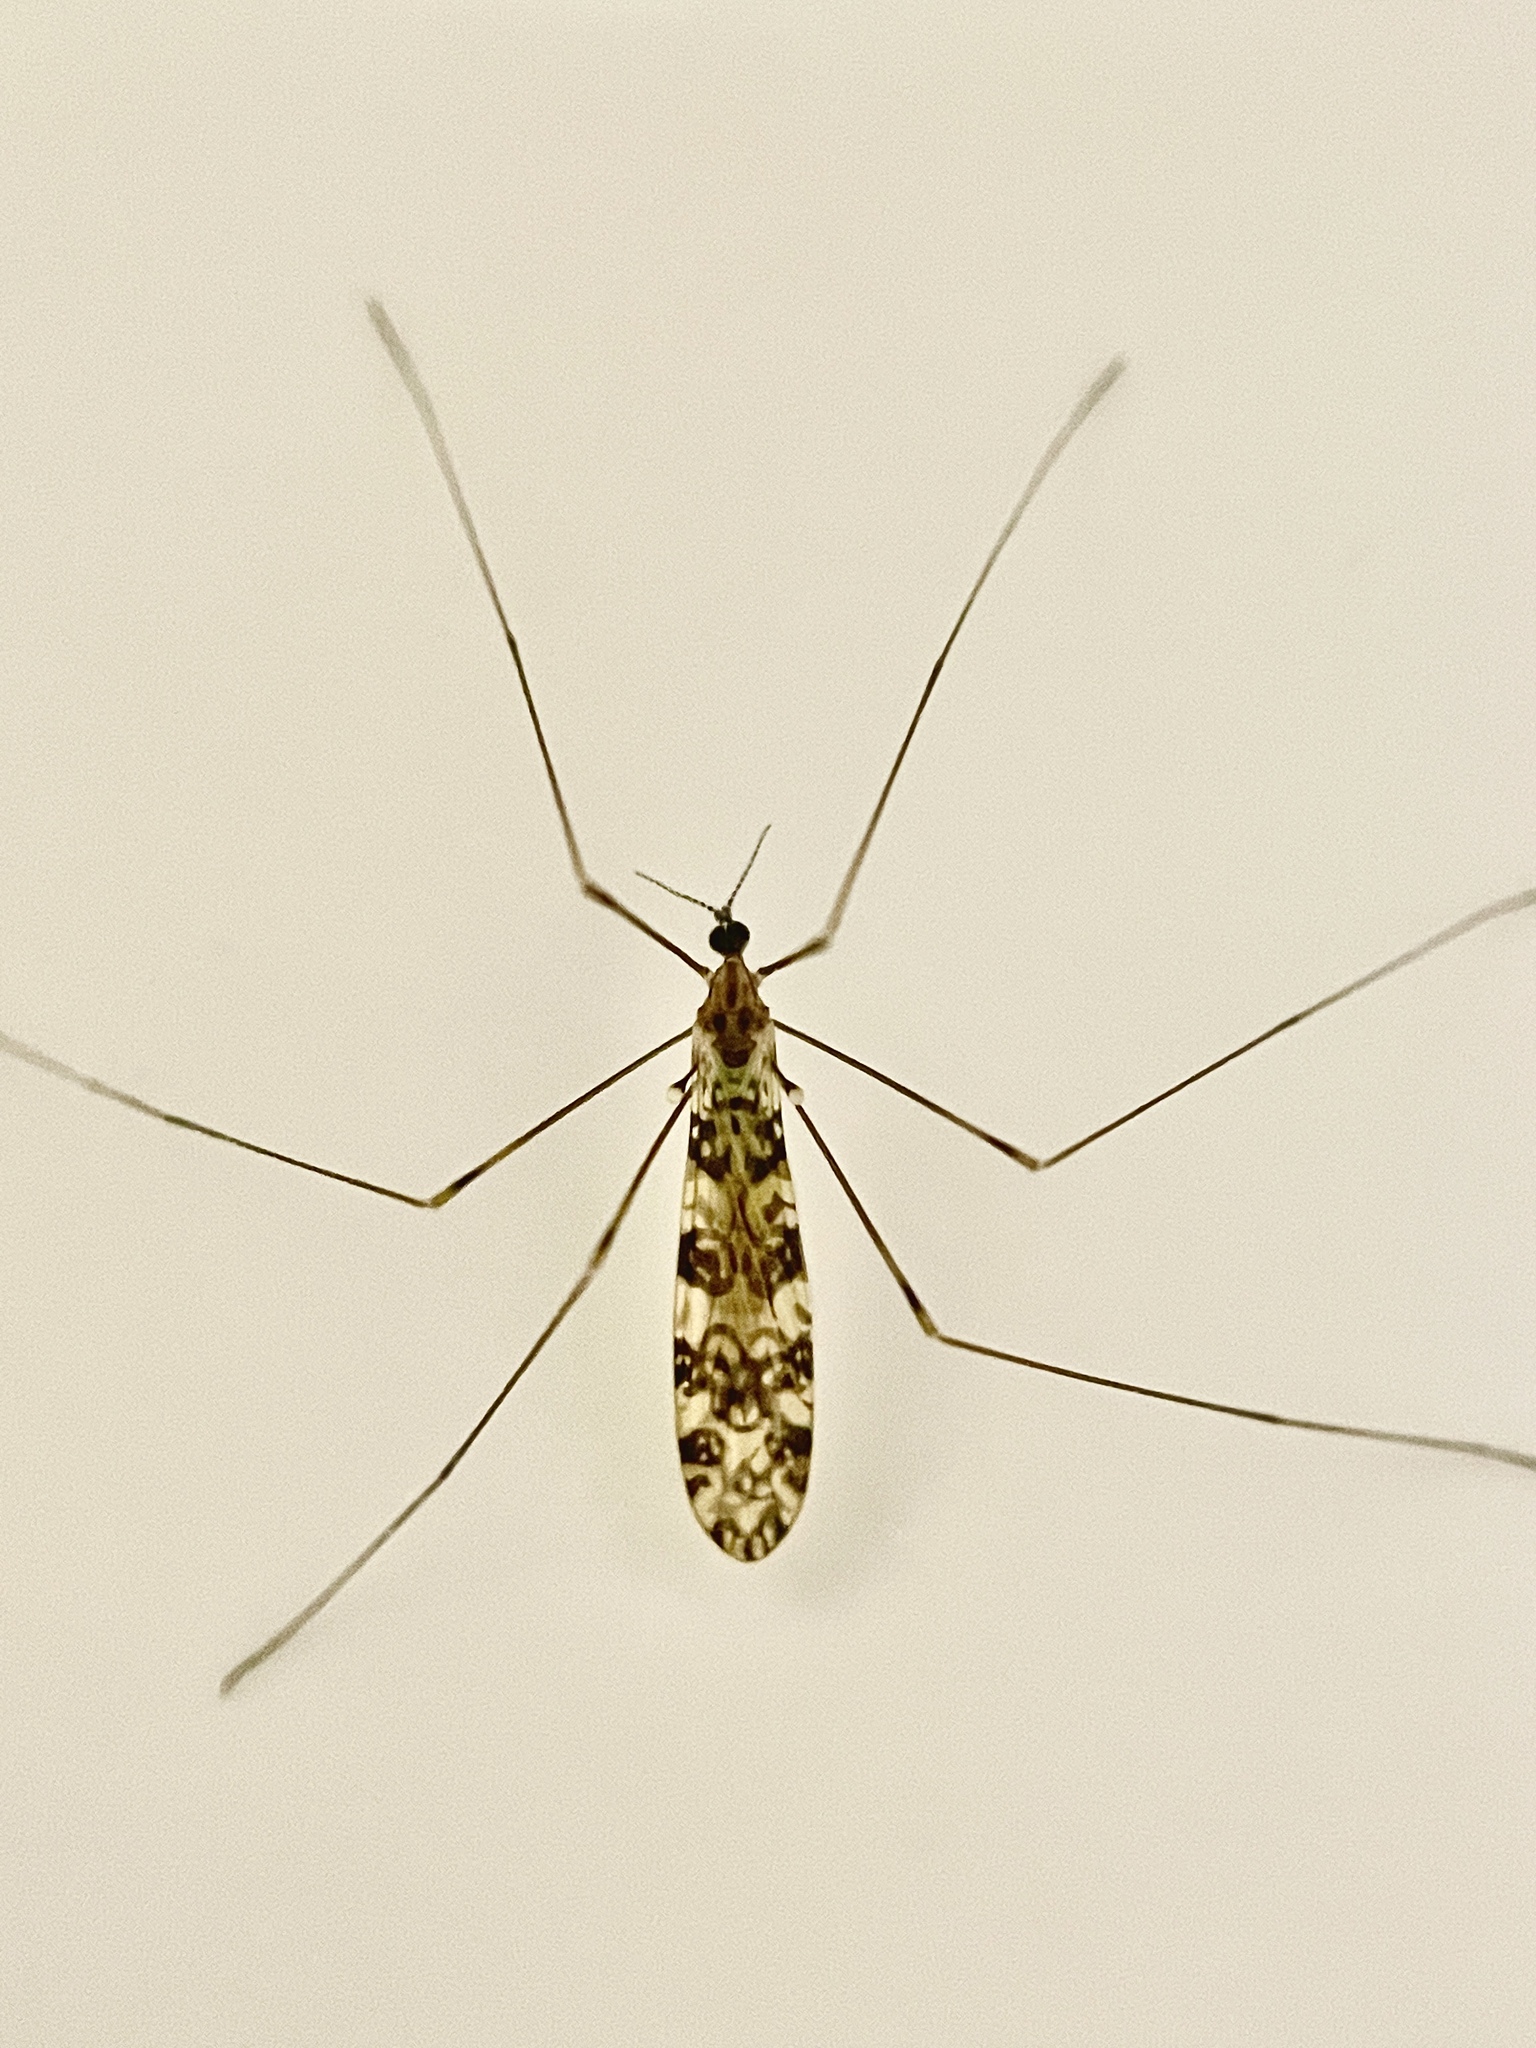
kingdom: Animalia
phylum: Arthropoda
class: Insecta
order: Diptera
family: Limoniidae
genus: Limonia
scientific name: Limonia annulata
